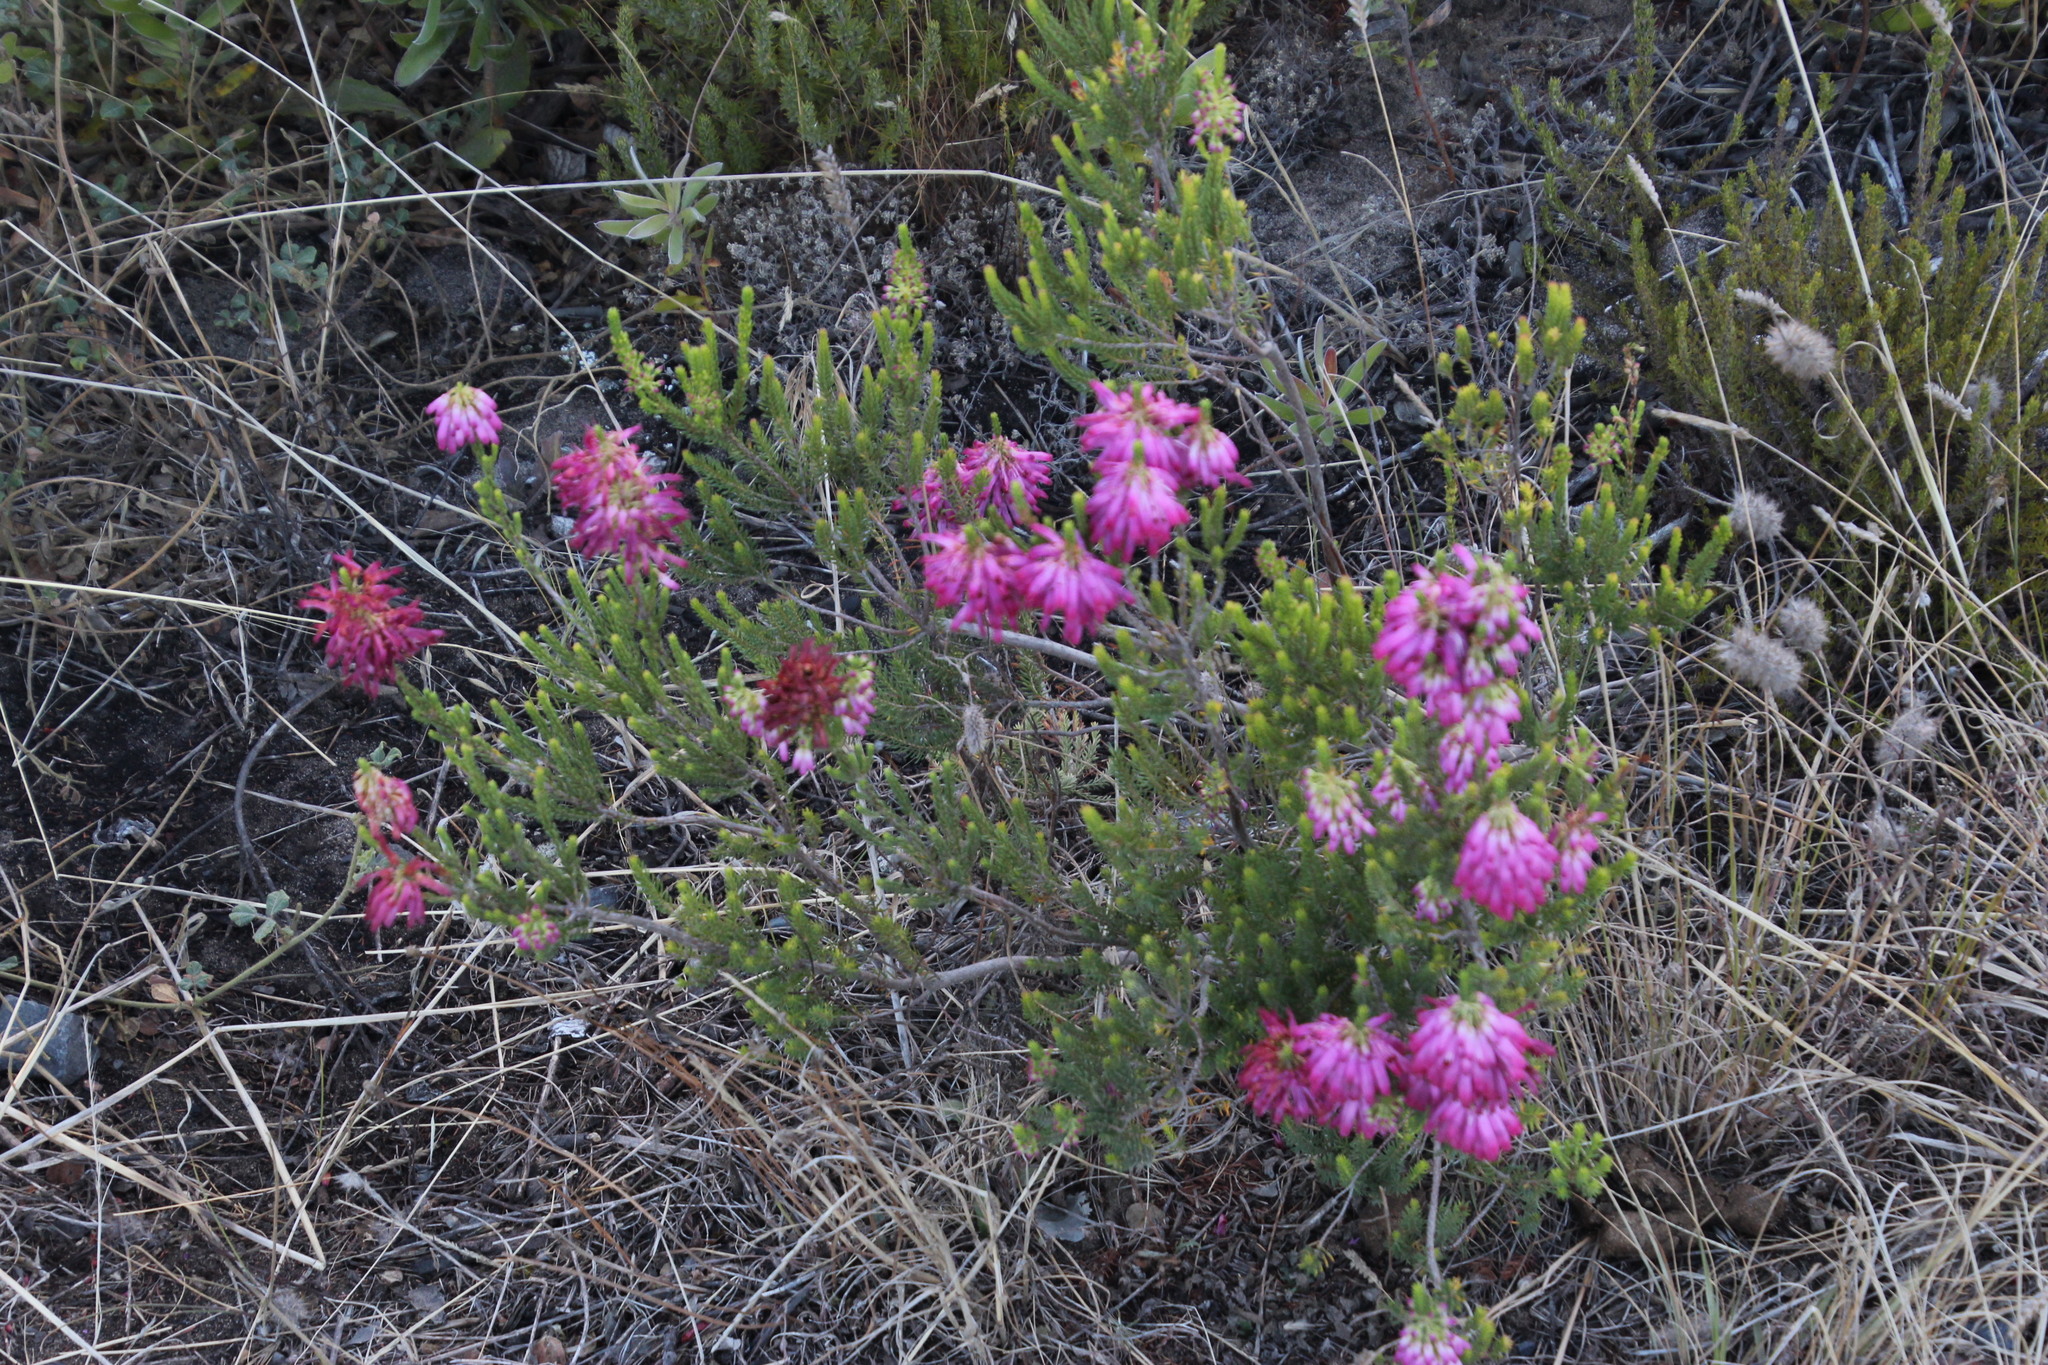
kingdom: Plantae
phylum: Tracheophyta
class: Magnoliopsida
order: Ericales
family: Ericaceae
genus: Erica
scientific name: Erica mammosa
